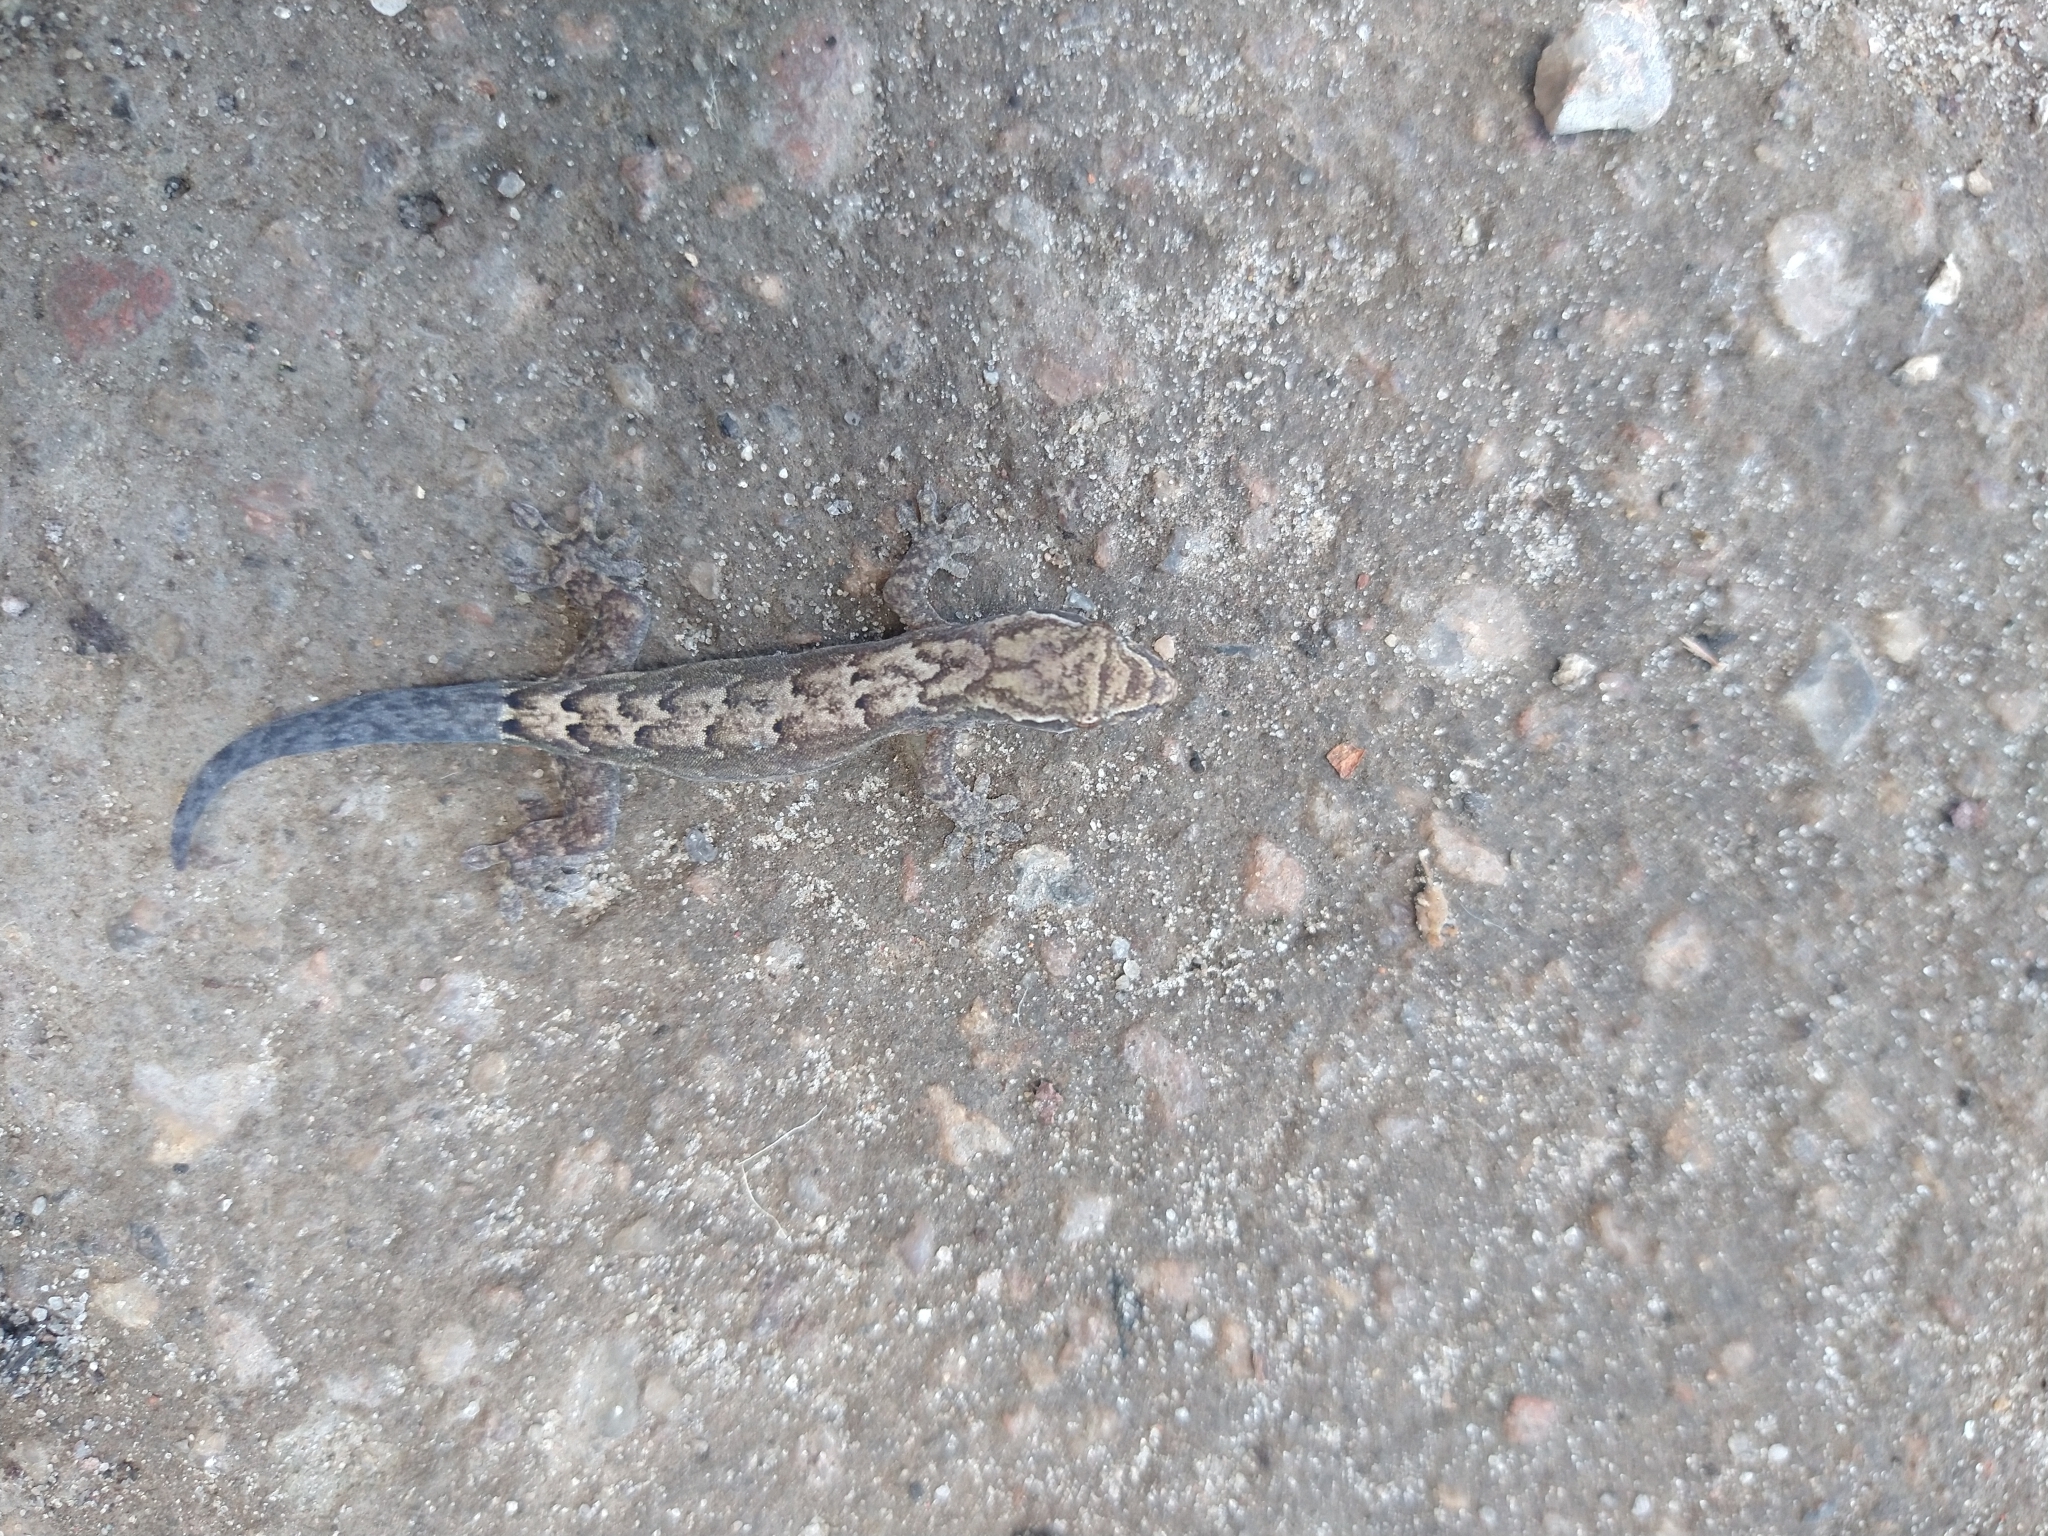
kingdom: Animalia
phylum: Chordata
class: Squamata
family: Gekkonidae
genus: Lepidodactylus
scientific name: Lepidodactylus lugubris
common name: Mourning gecko
